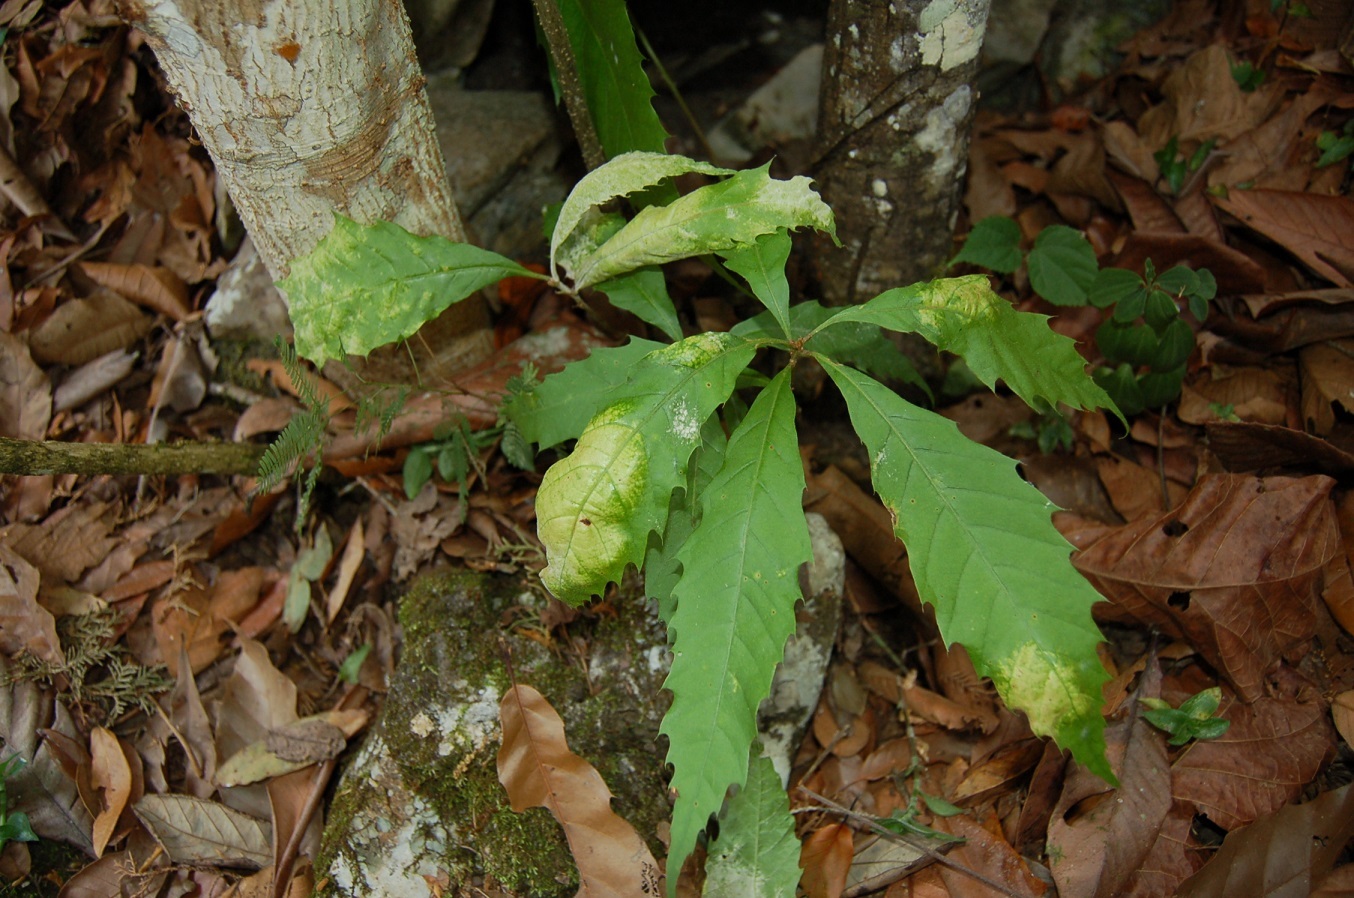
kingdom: Plantae
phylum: Tracheophyta
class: Magnoliopsida
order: Fagales
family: Fagaceae
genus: Quercus
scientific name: Quercus lancifolia
